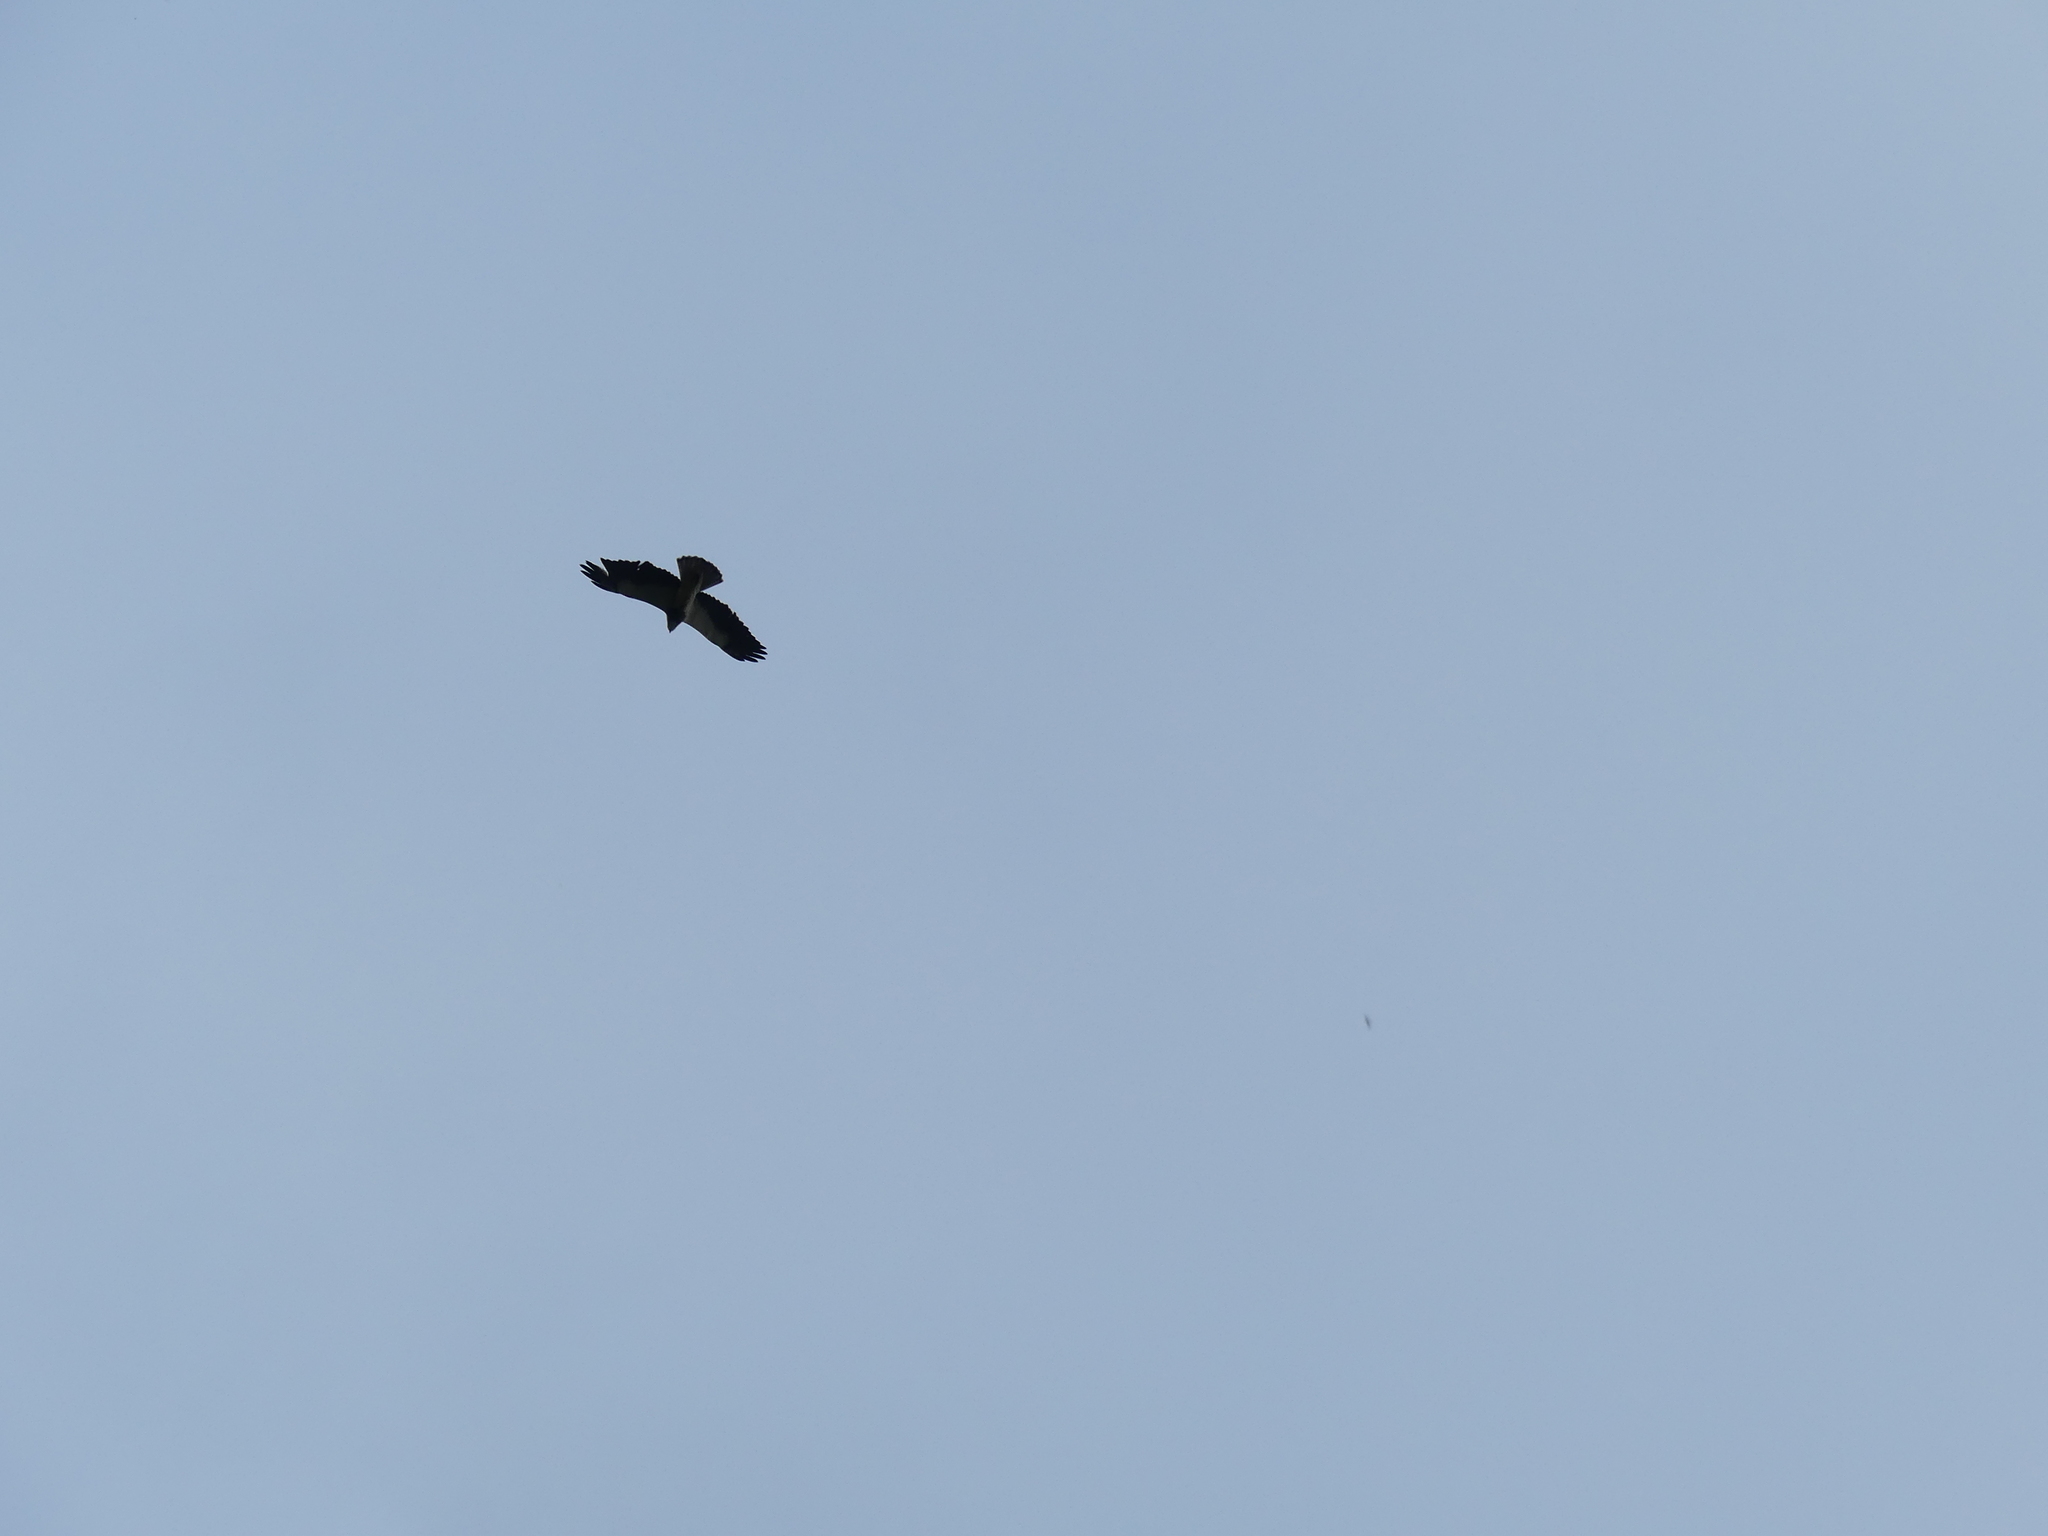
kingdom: Animalia
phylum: Chordata
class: Aves
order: Accipitriformes
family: Accipitridae
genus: Buteo
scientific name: Buteo swainsoni
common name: Swainson's hawk
